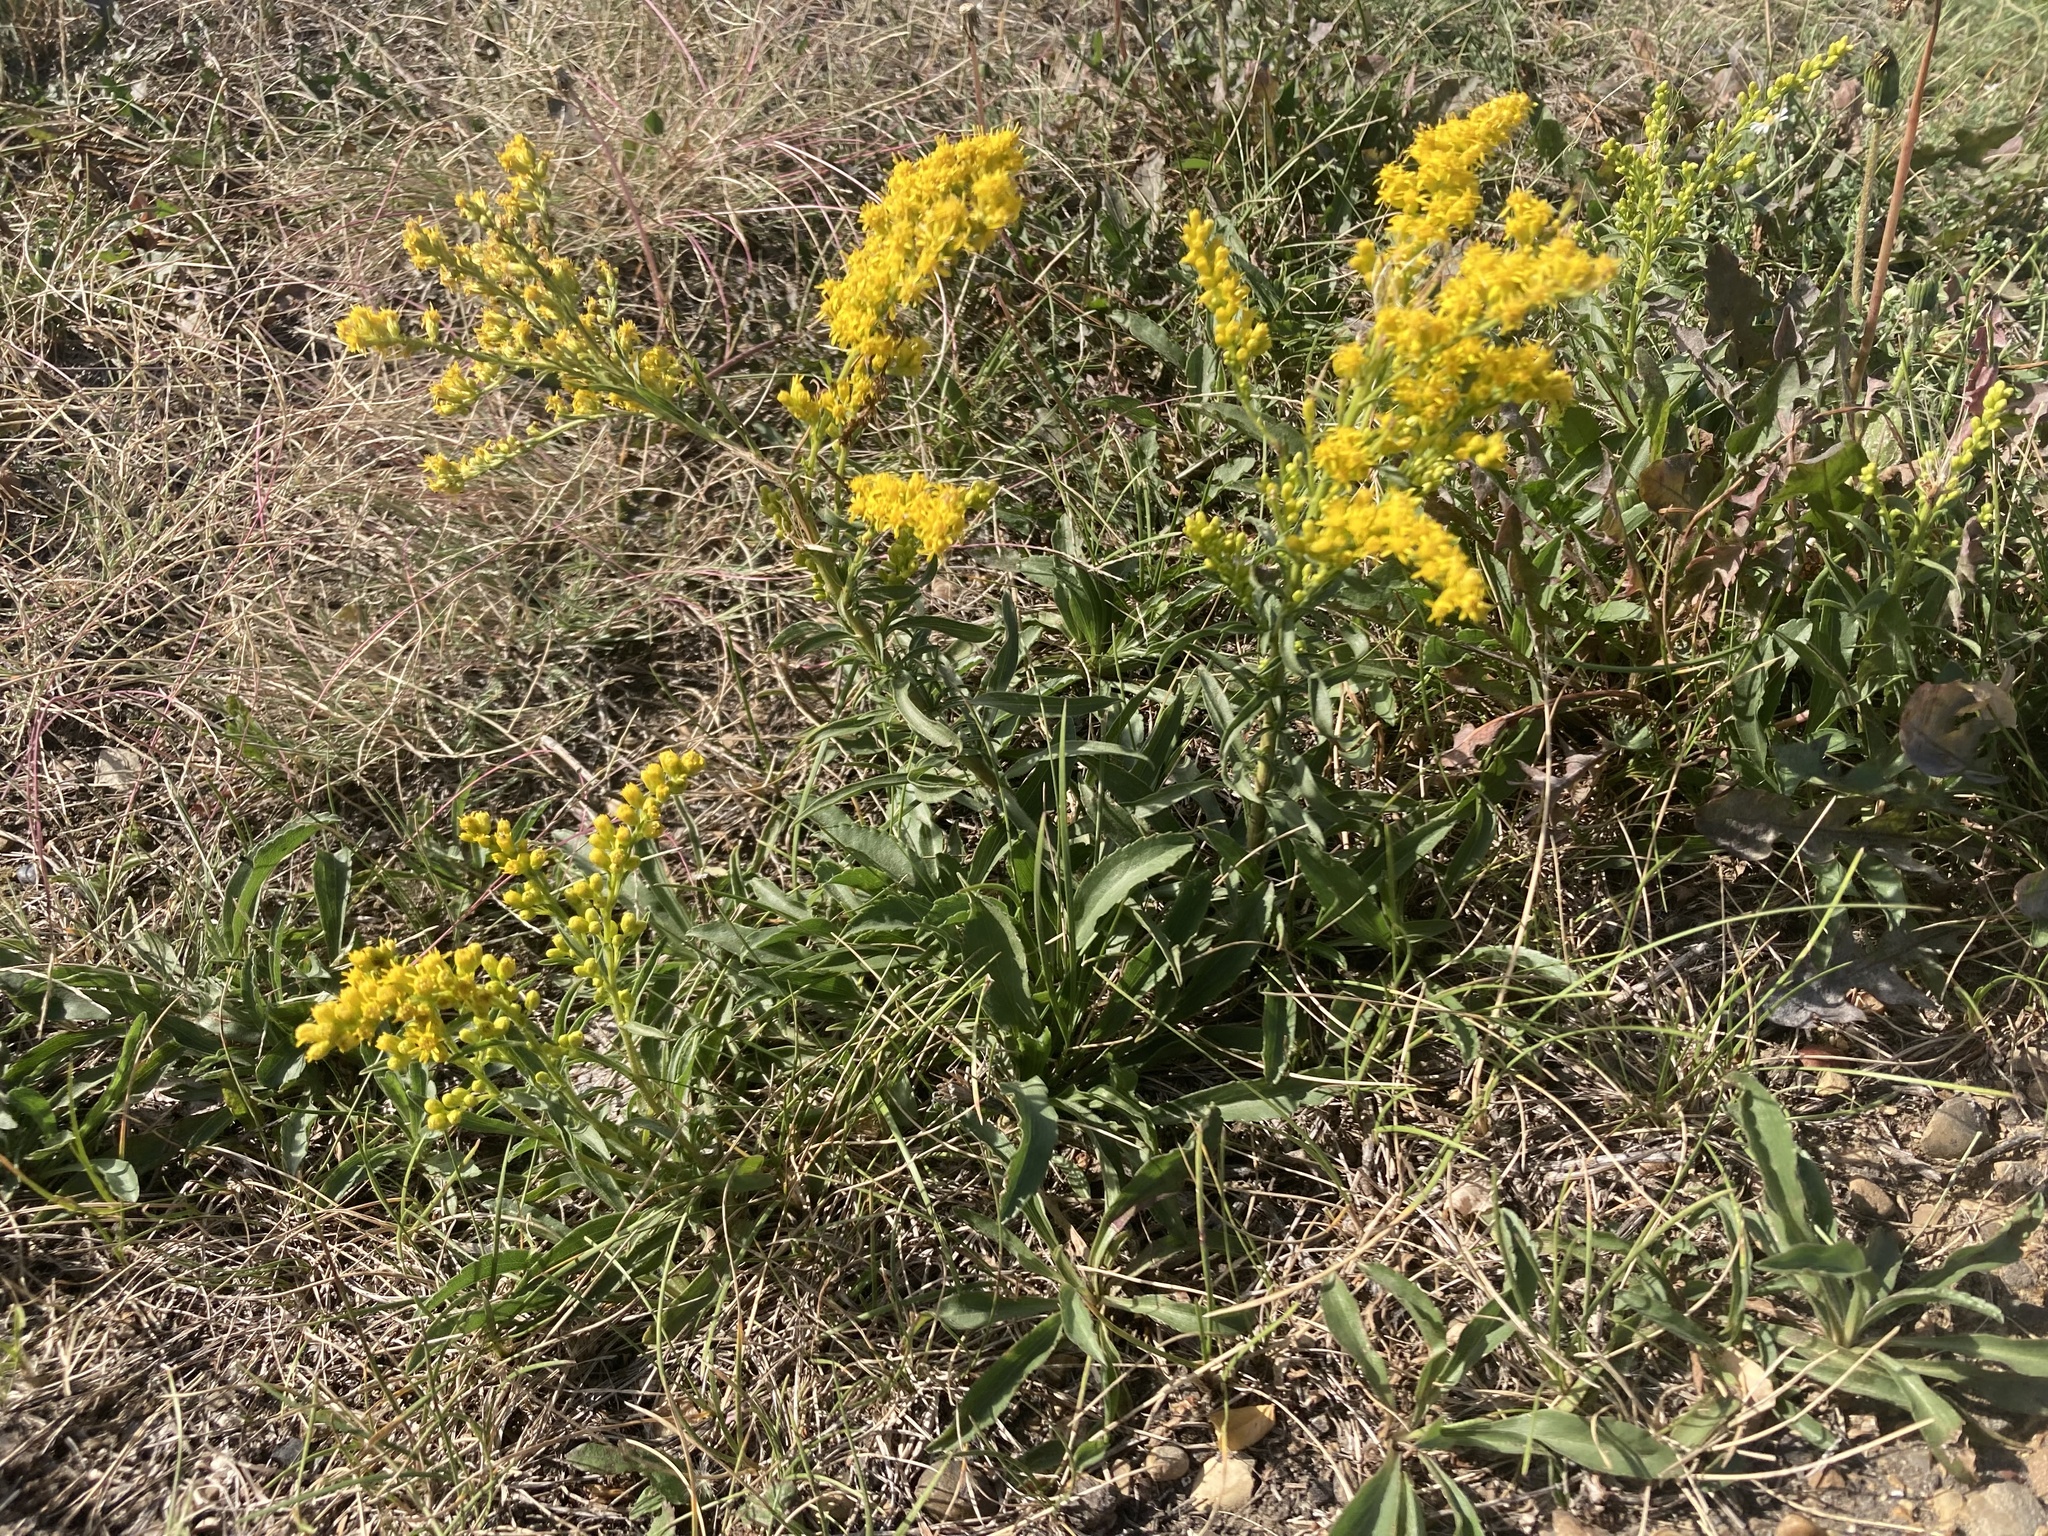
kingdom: Plantae
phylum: Tracheophyta
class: Magnoliopsida
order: Asterales
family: Asteraceae
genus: Solidago
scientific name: Solidago missouriensis
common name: Prairie goldenrod
